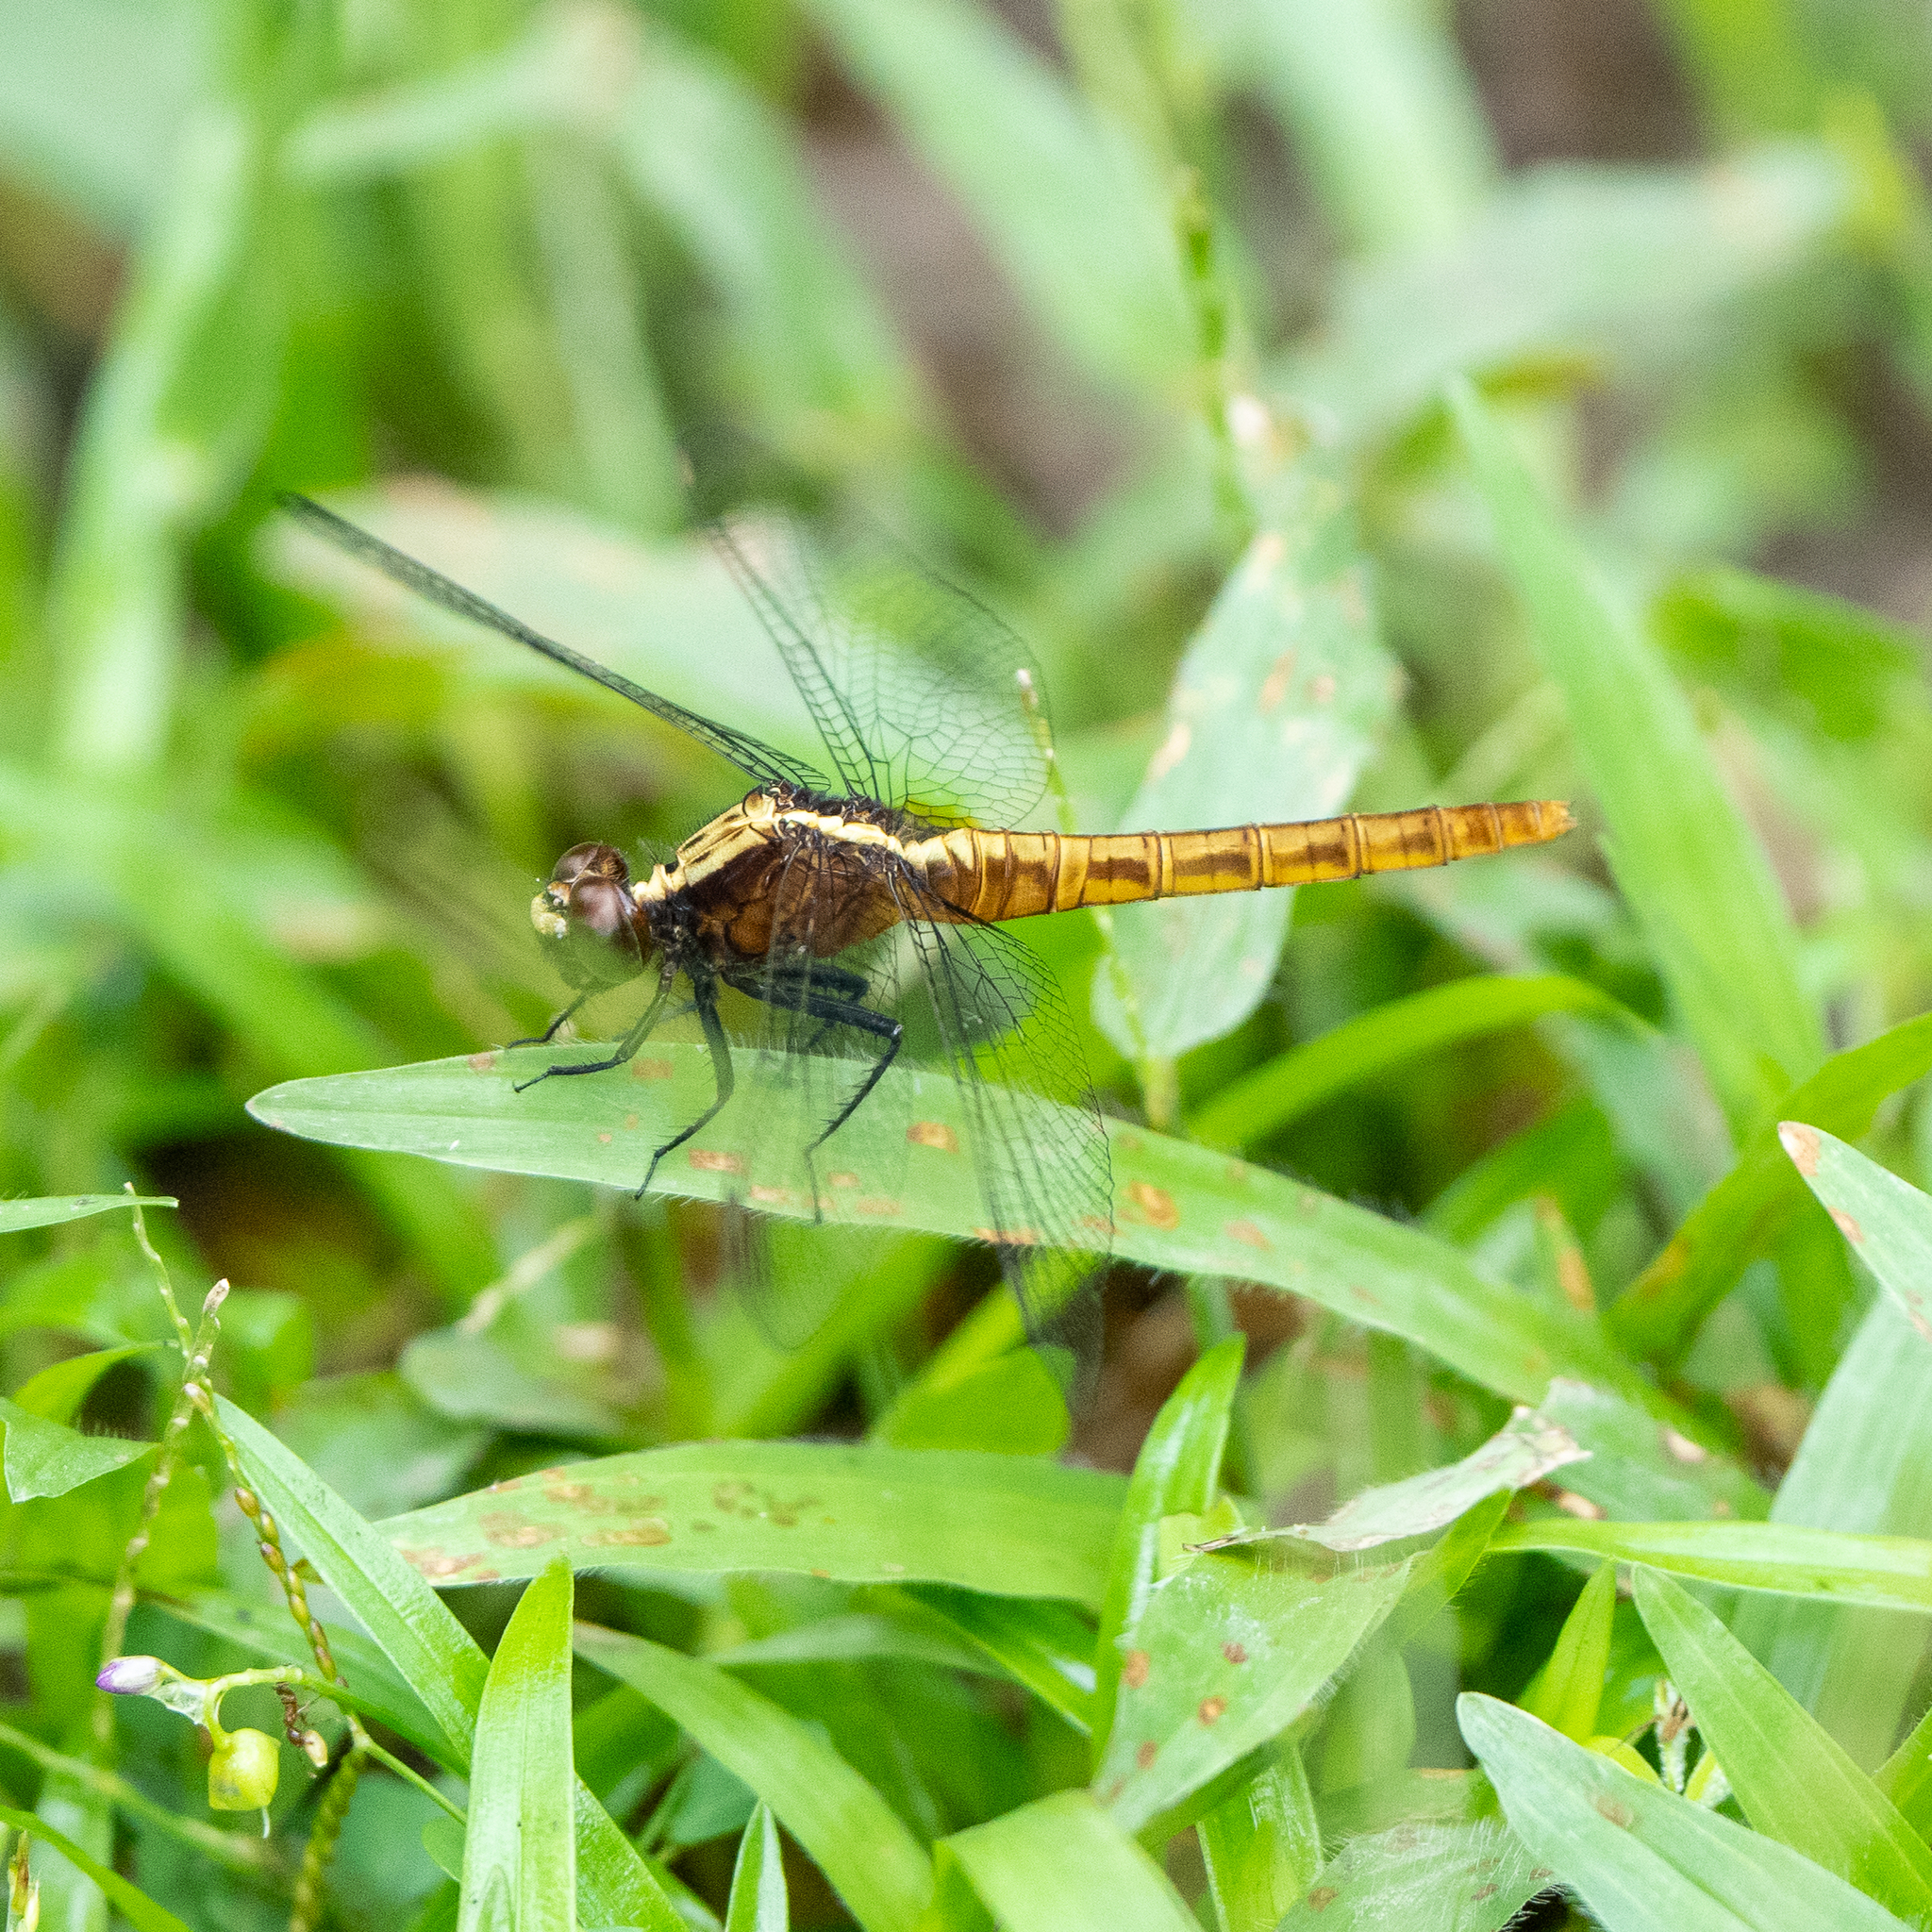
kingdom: Animalia
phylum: Arthropoda
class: Insecta
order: Odonata
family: Libellulidae
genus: Erythemis
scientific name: Erythemis peruviana
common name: Flame-tailed pondhawk
